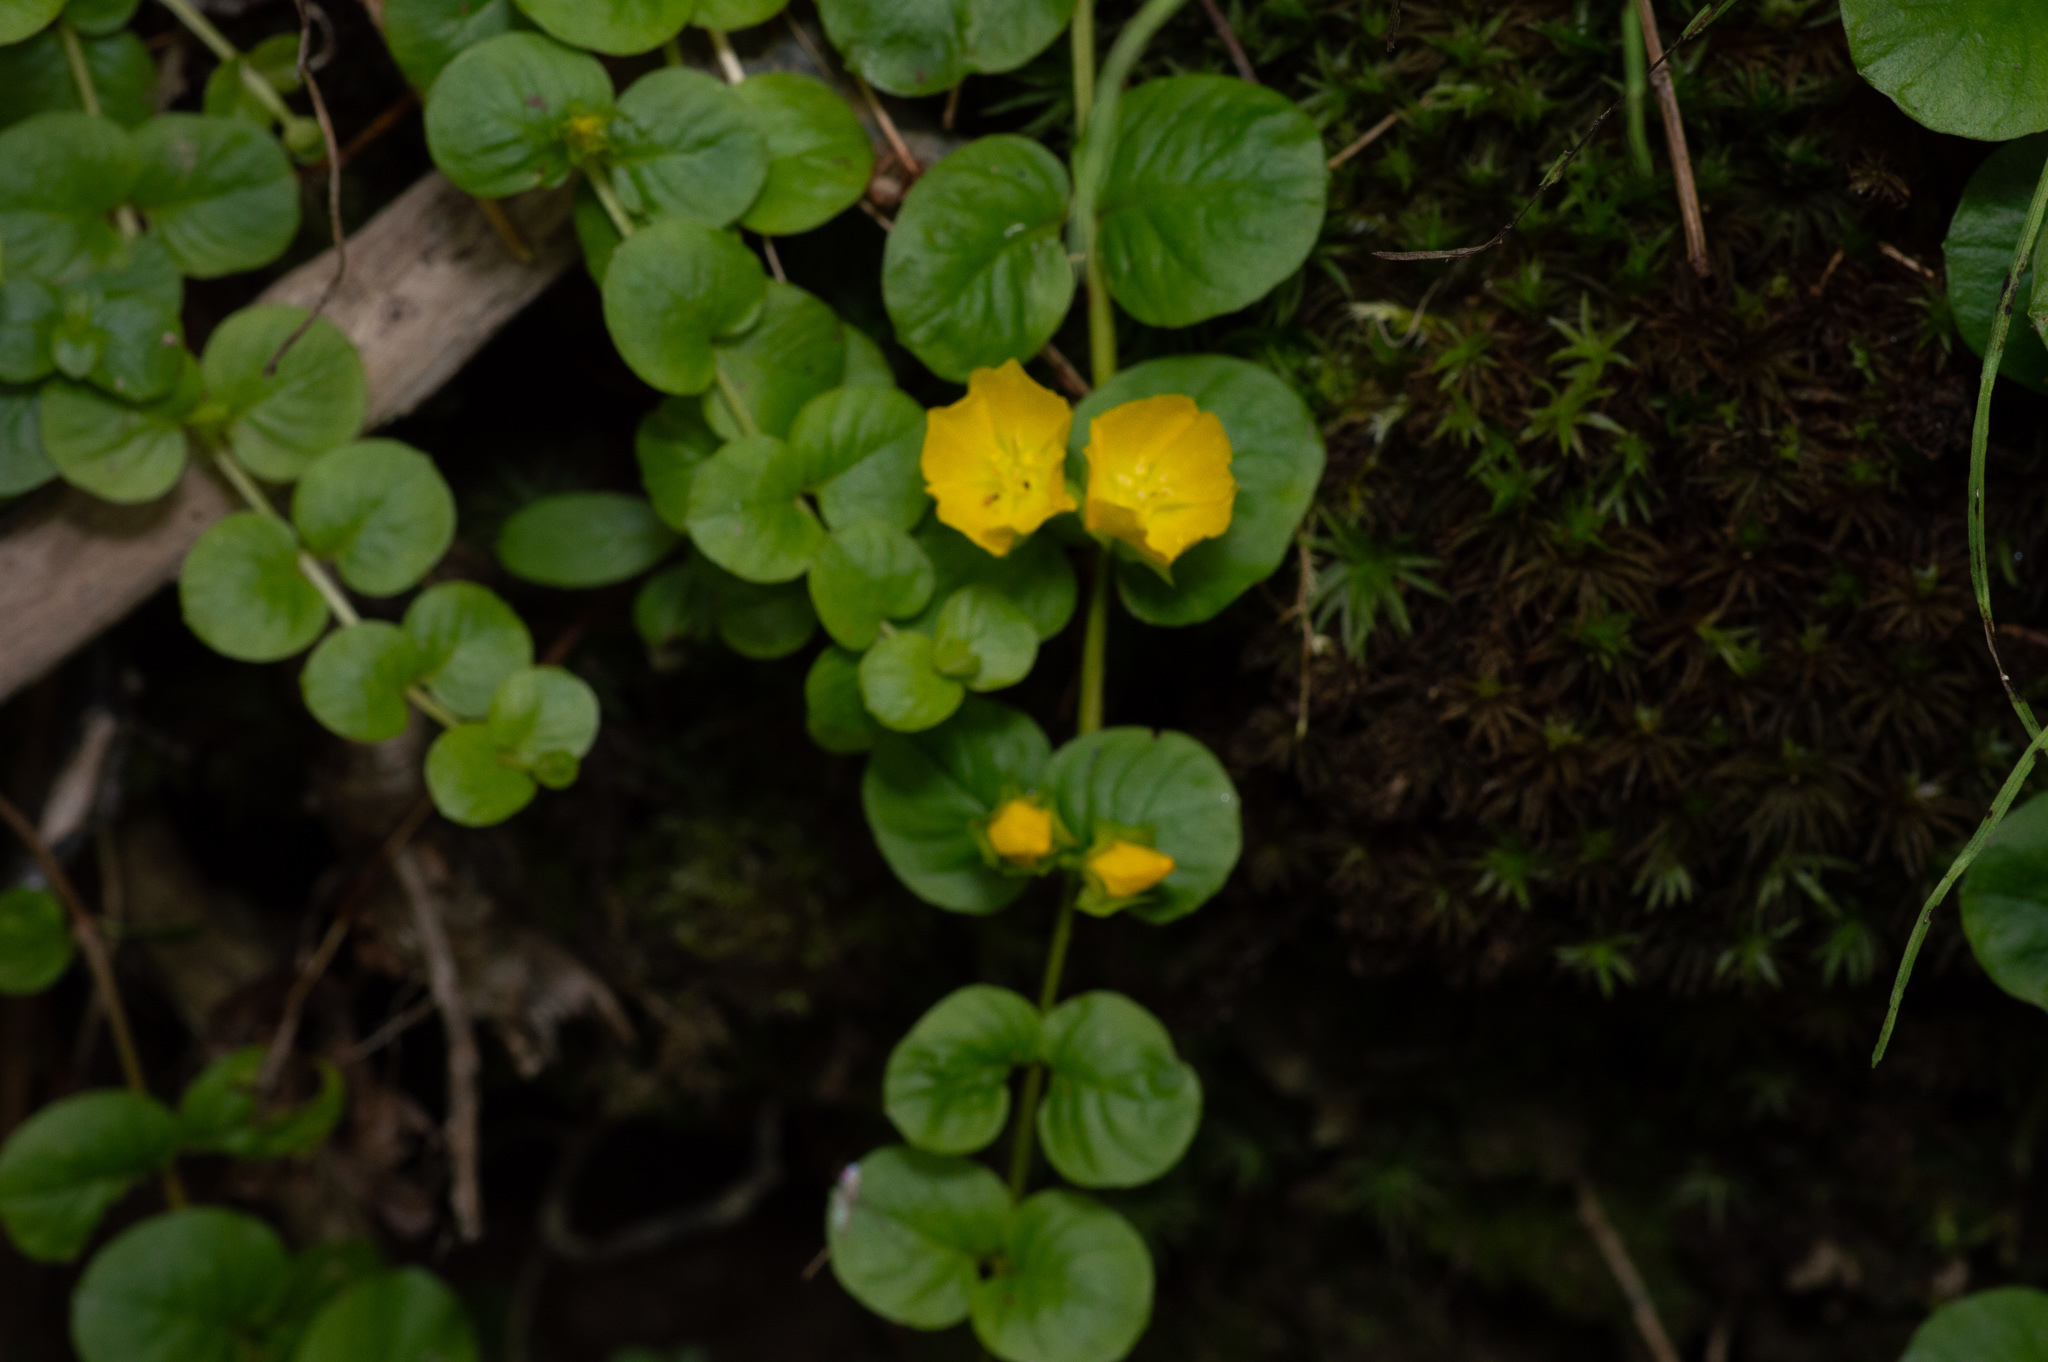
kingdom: Plantae
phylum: Tracheophyta
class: Magnoliopsida
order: Ericales
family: Primulaceae
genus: Lysimachia
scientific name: Lysimachia nummularia
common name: Moneywort
